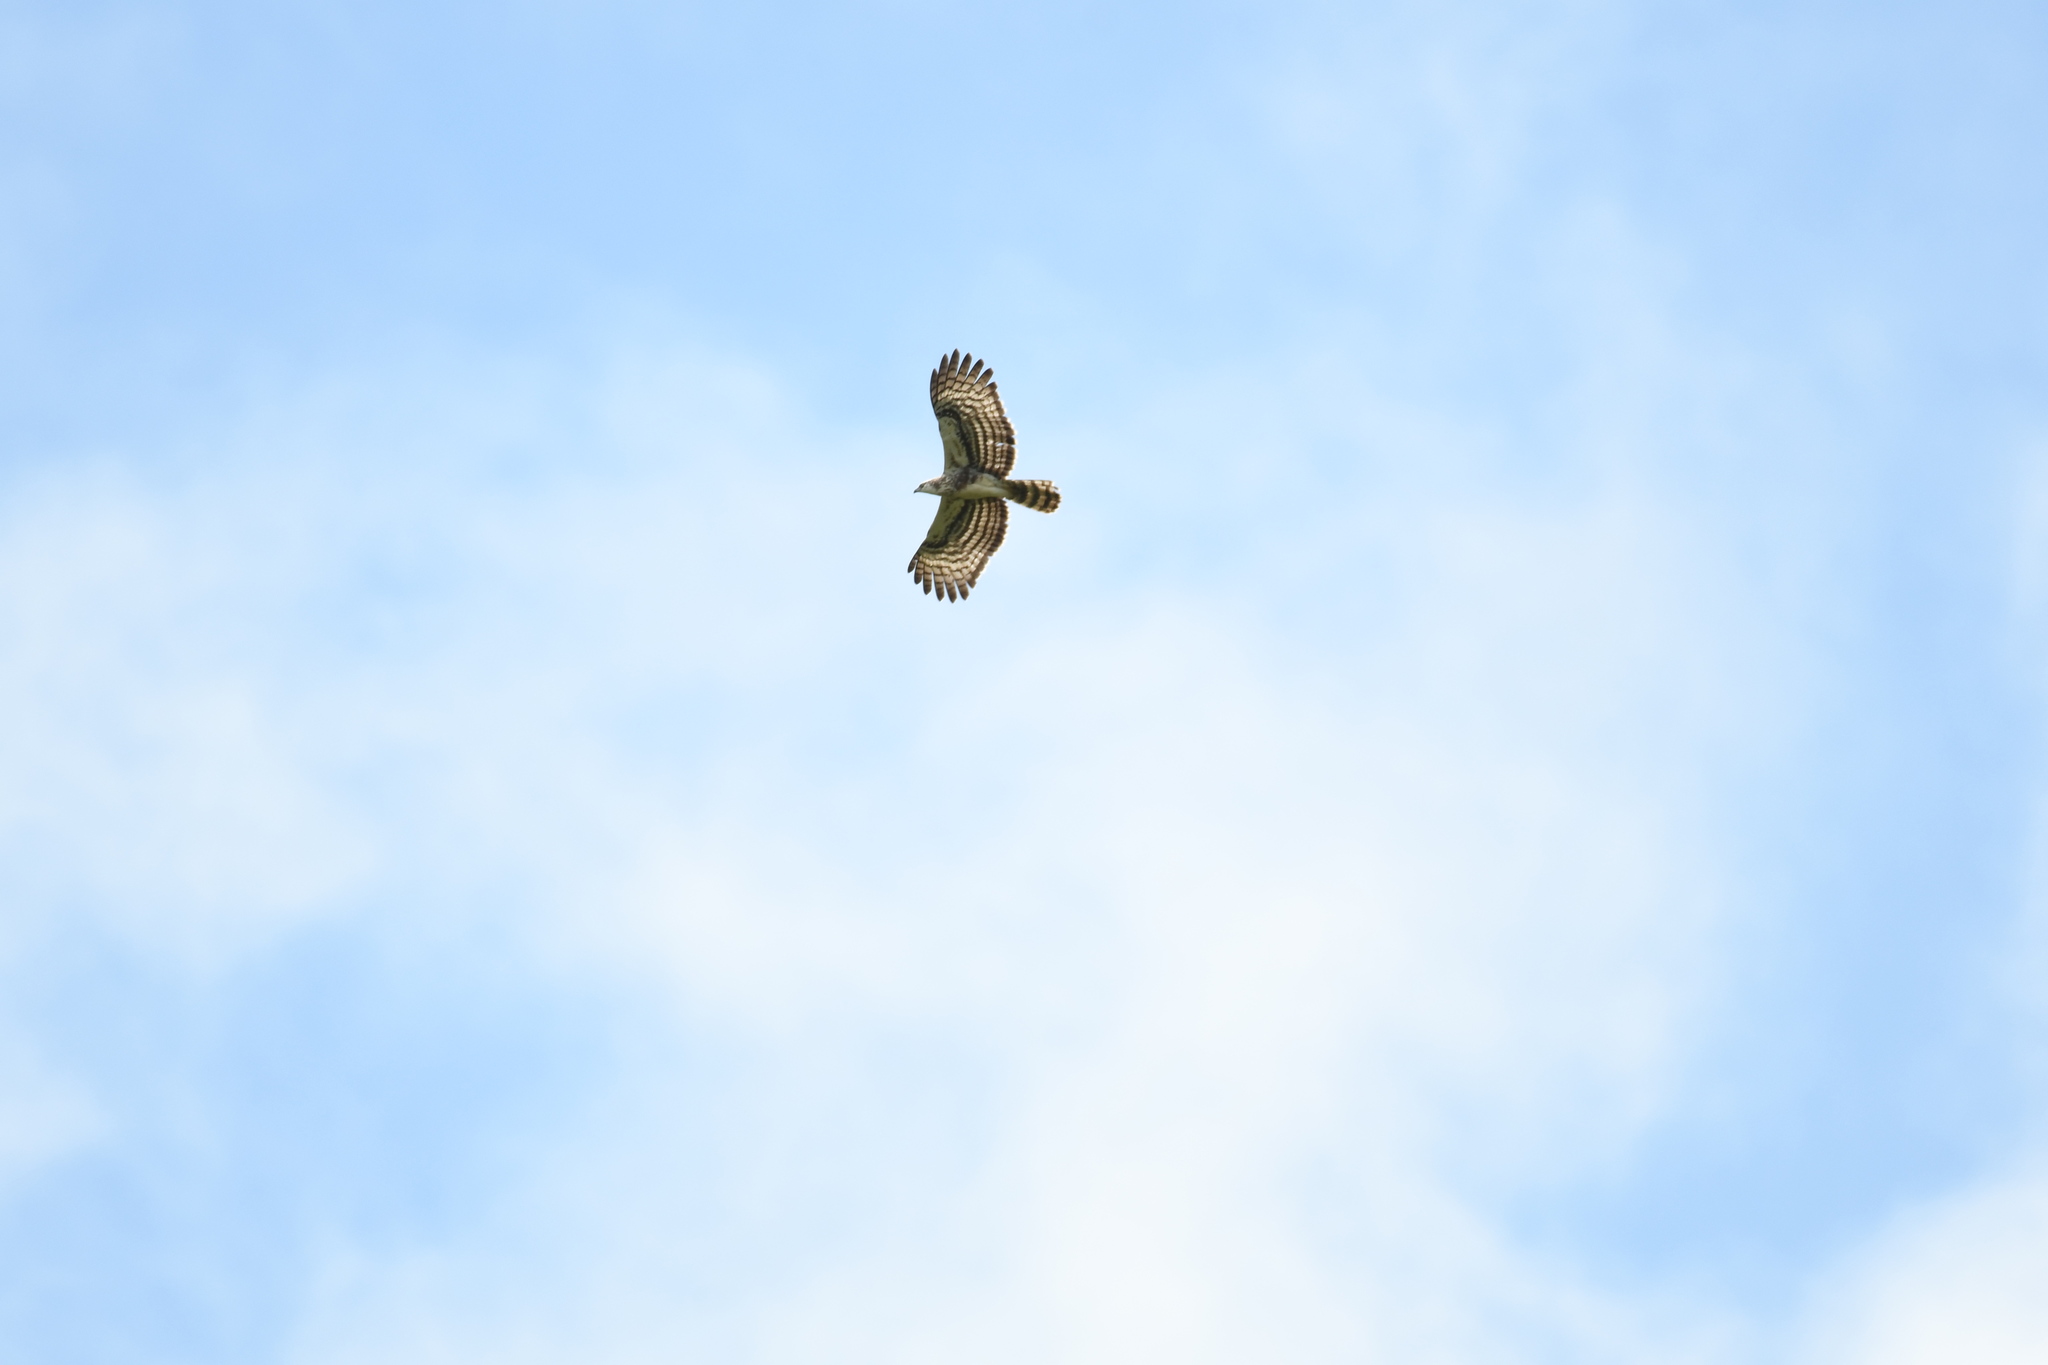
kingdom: Animalia
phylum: Chordata
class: Aves
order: Accipitriformes
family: Accipitridae
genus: Polyboroides
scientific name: Polyboroides radiatus
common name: Madagascar harrier-hawk
